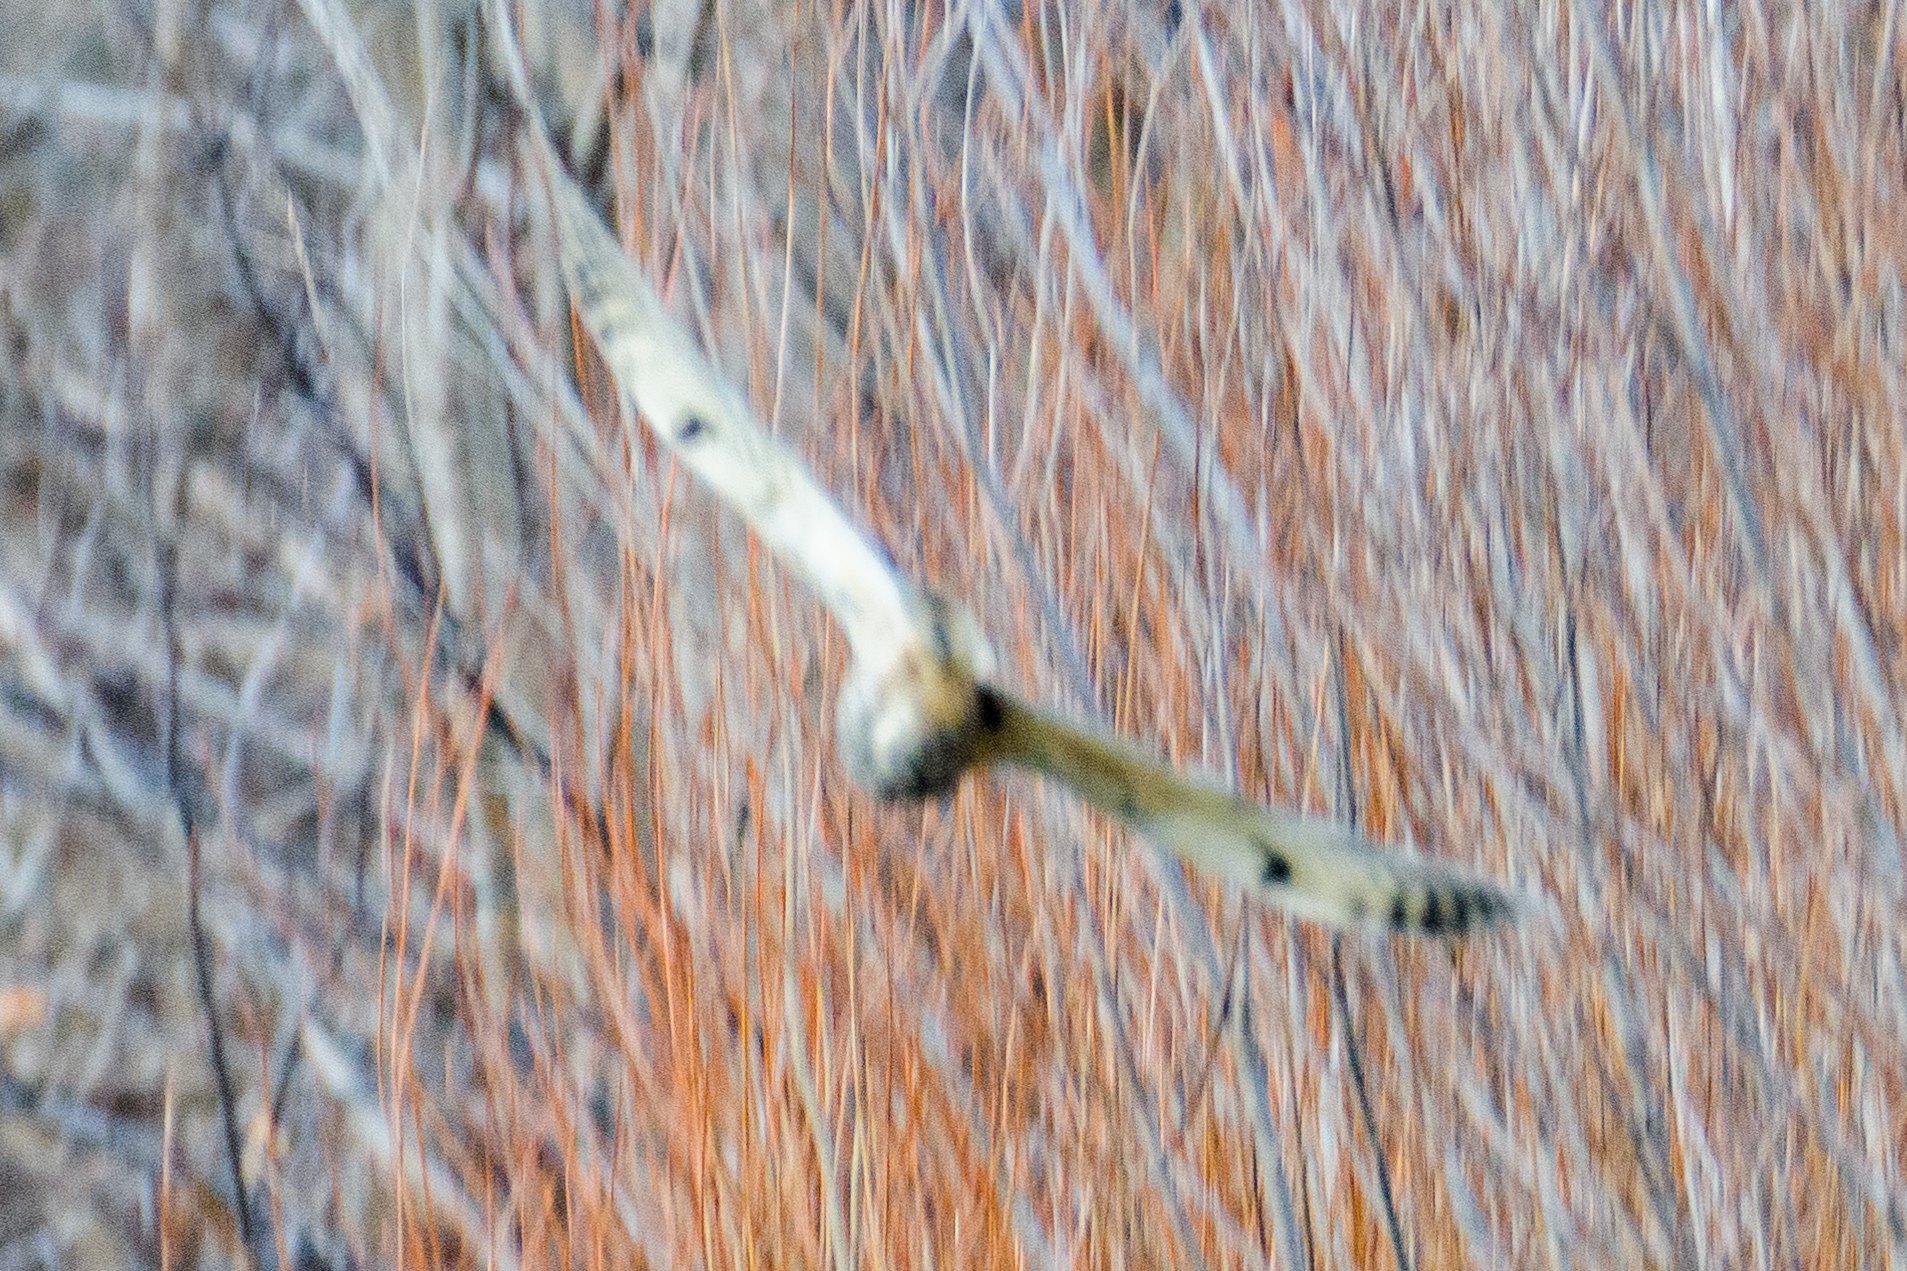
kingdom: Animalia
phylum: Chordata
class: Aves
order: Strigiformes
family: Strigidae
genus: Asio
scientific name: Asio otus
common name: Long-eared owl
